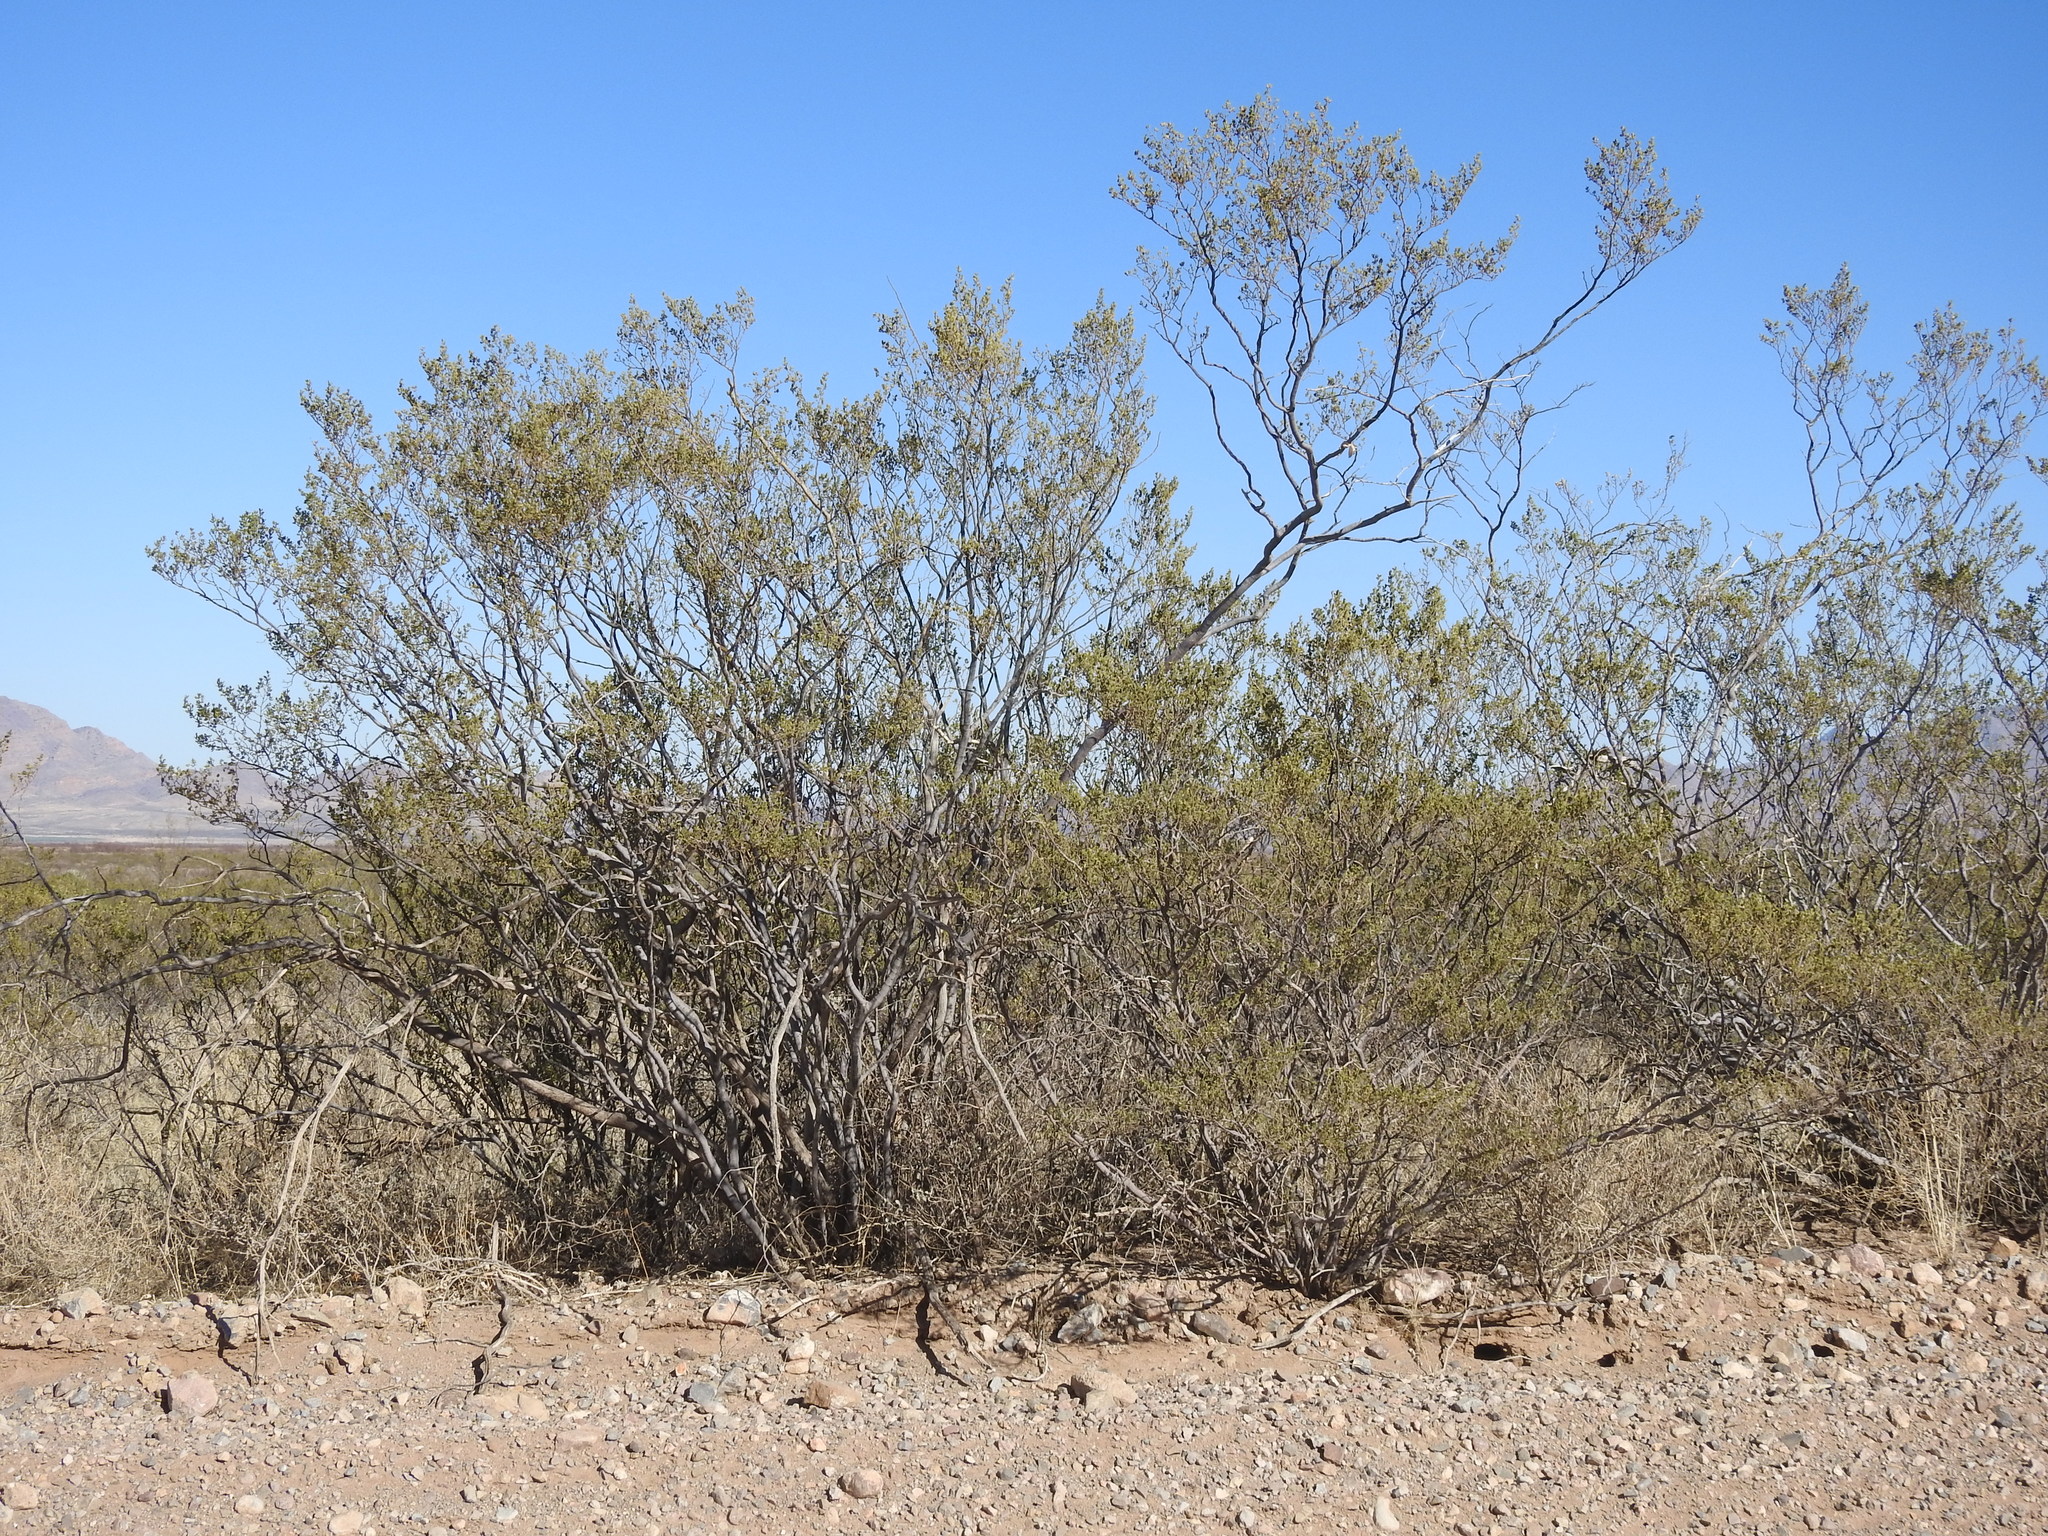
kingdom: Plantae
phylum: Tracheophyta
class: Magnoliopsida
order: Zygophyllales
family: Zygophyllaceae
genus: Larrea
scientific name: Larrea tridentata
